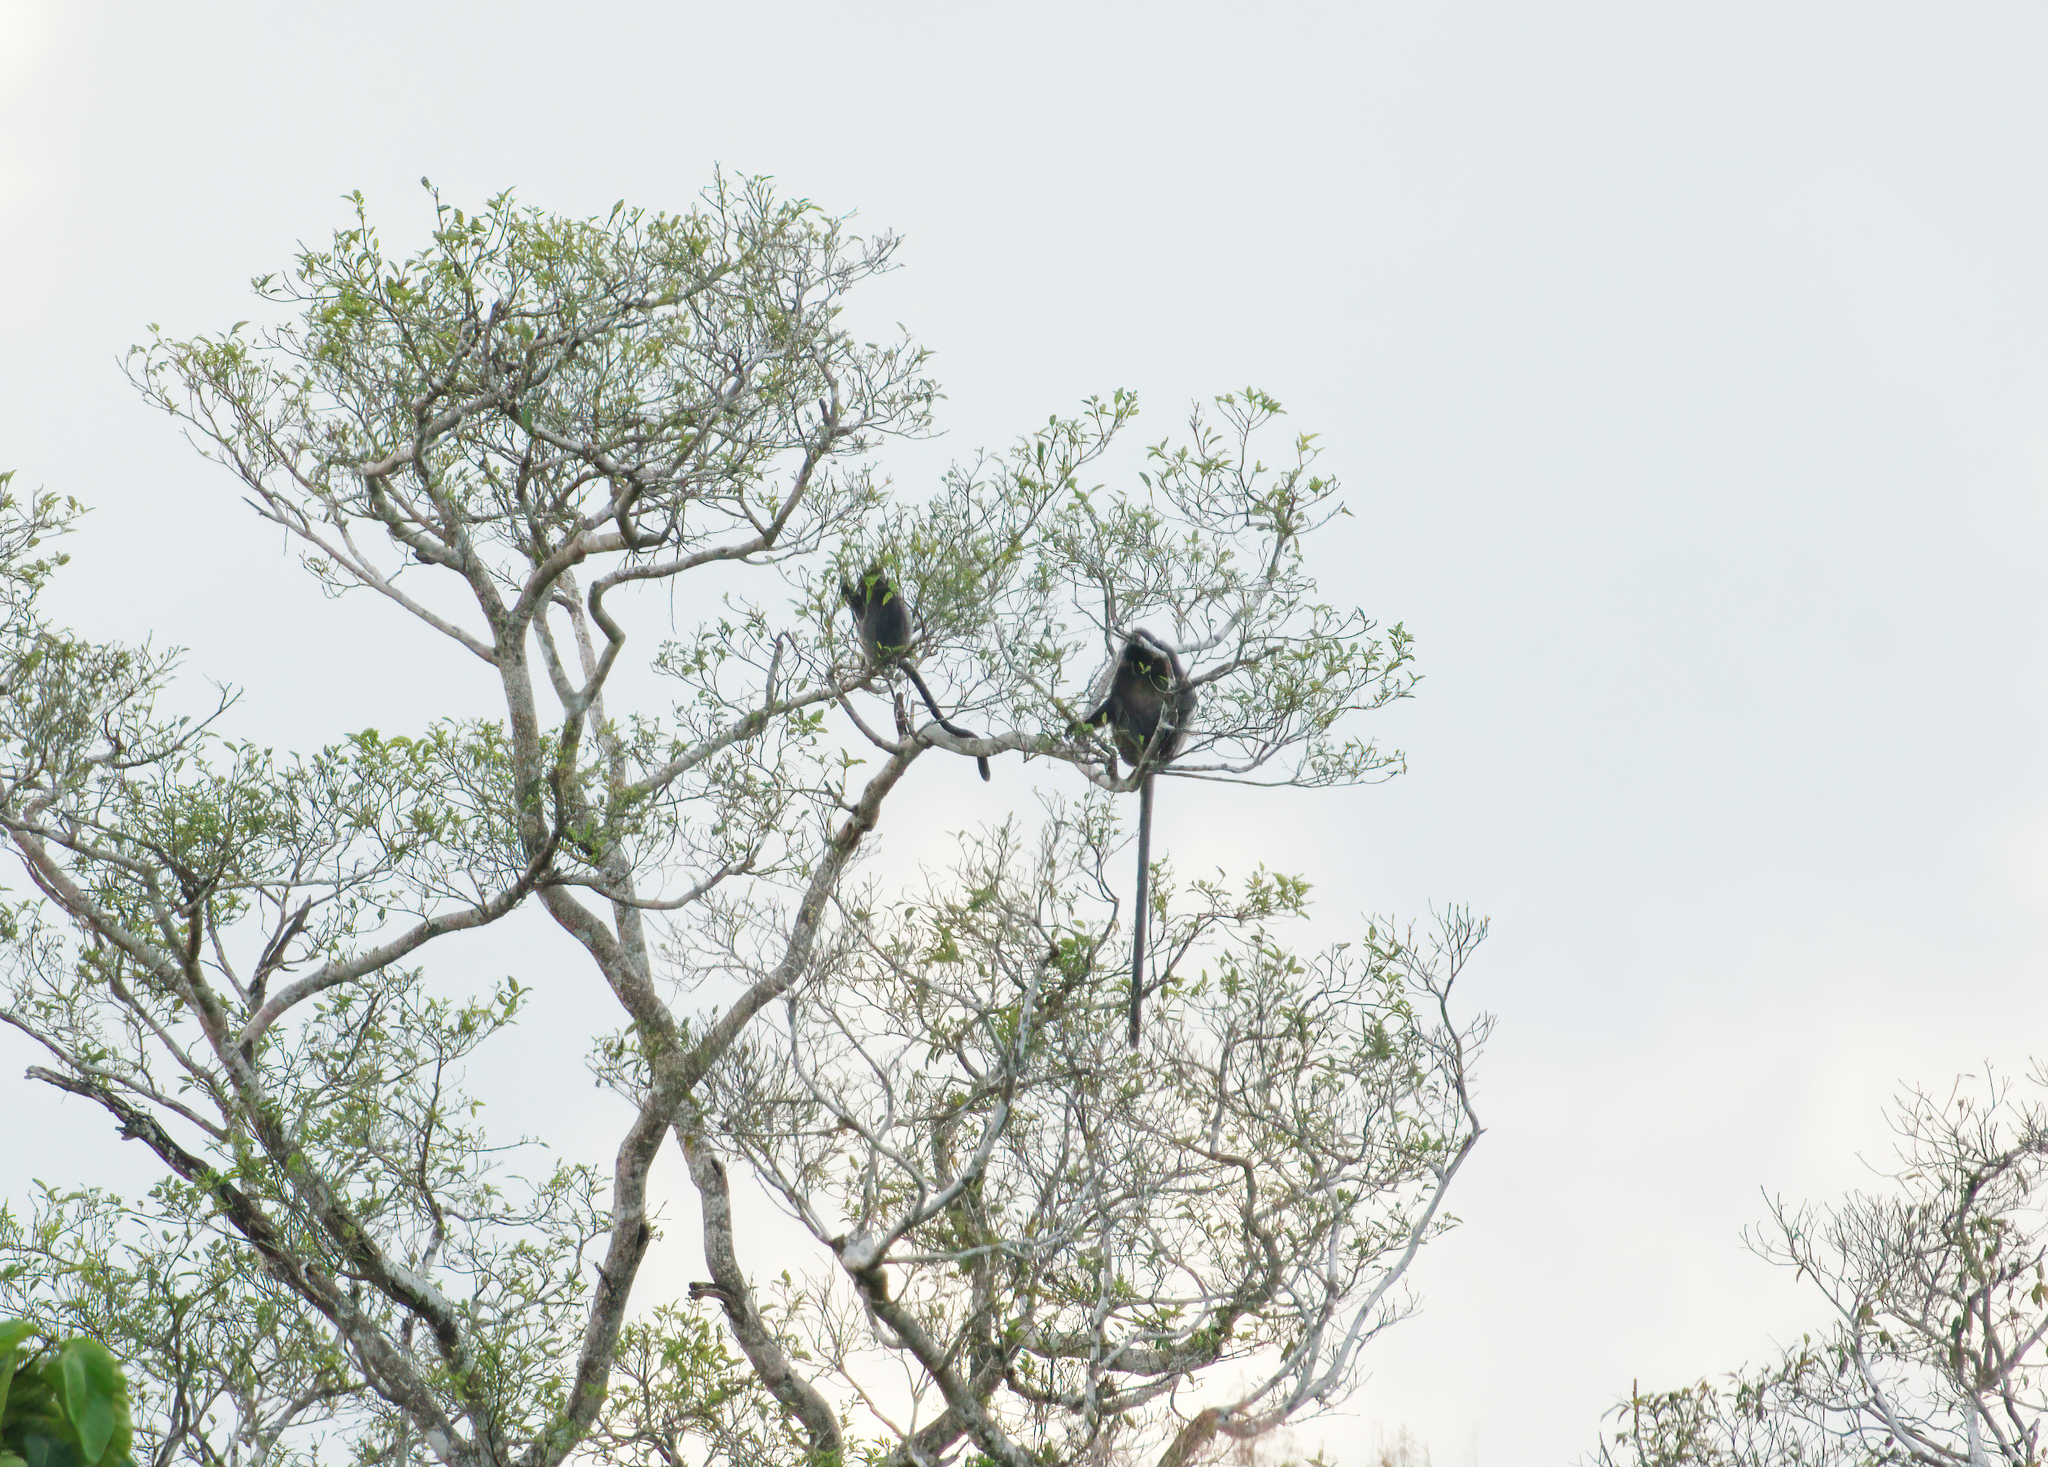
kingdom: Animalia
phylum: Chordata
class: Mammalia
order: Primates
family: Cercopithecidae
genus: Trachypithecus
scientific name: Trachypithecus cristatus
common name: Silvery lutung
